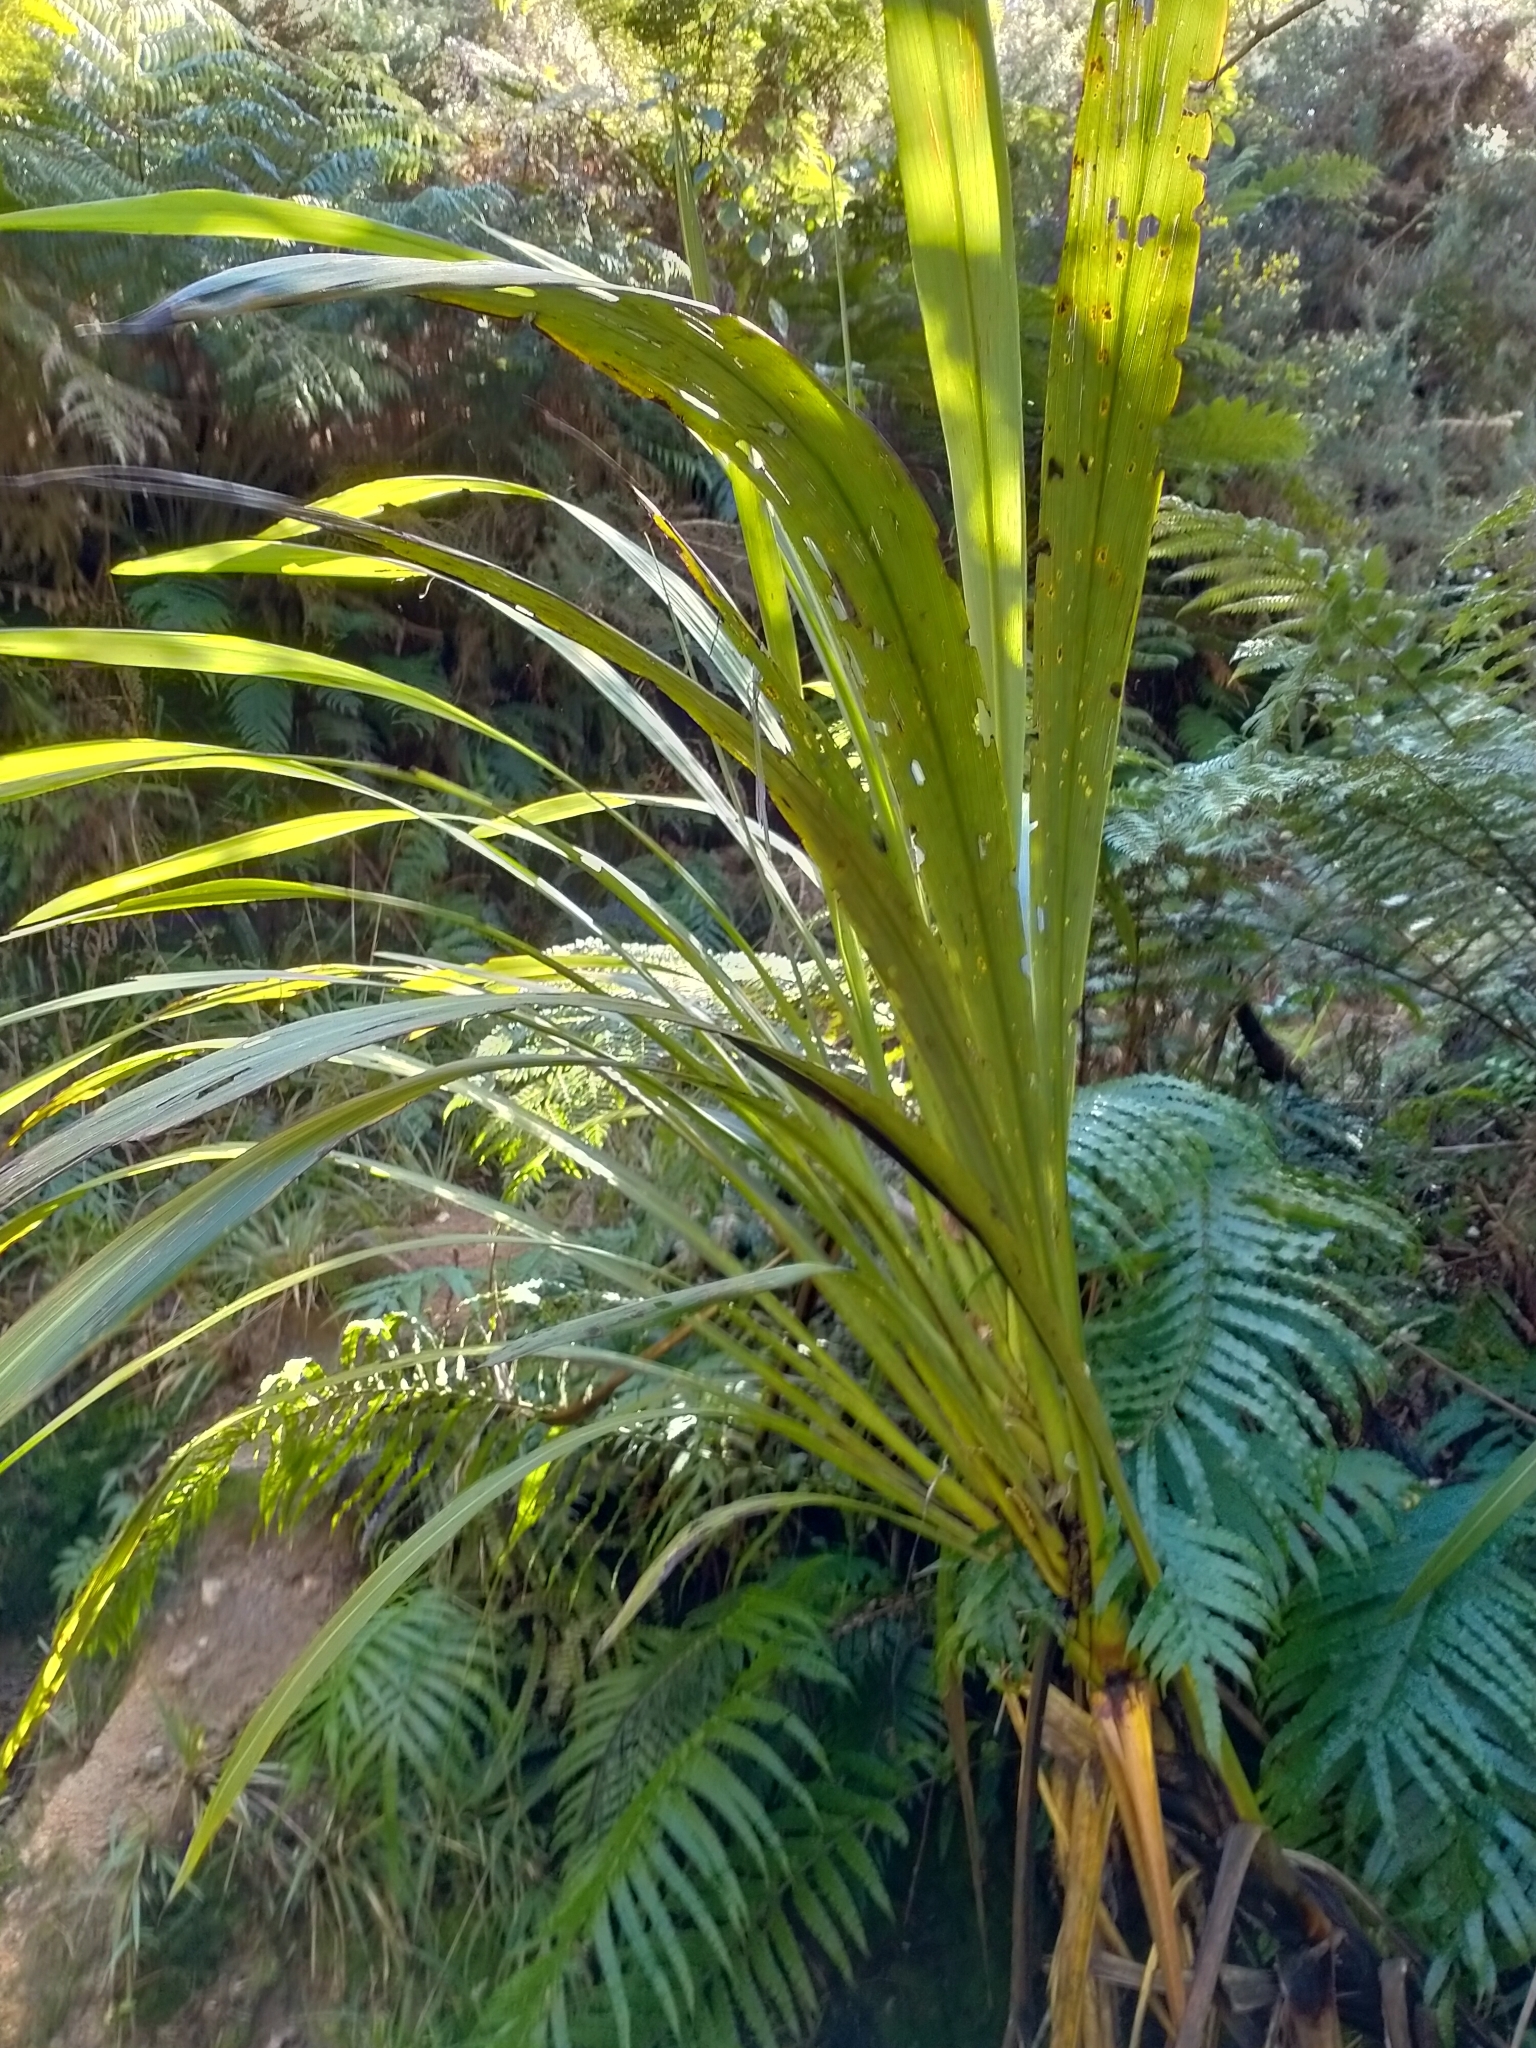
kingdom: Plantae
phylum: Tracheophyta
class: Liliopsida
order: Asparagales
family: Asparagaceae
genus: Cordyline
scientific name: Cordyline banksii
